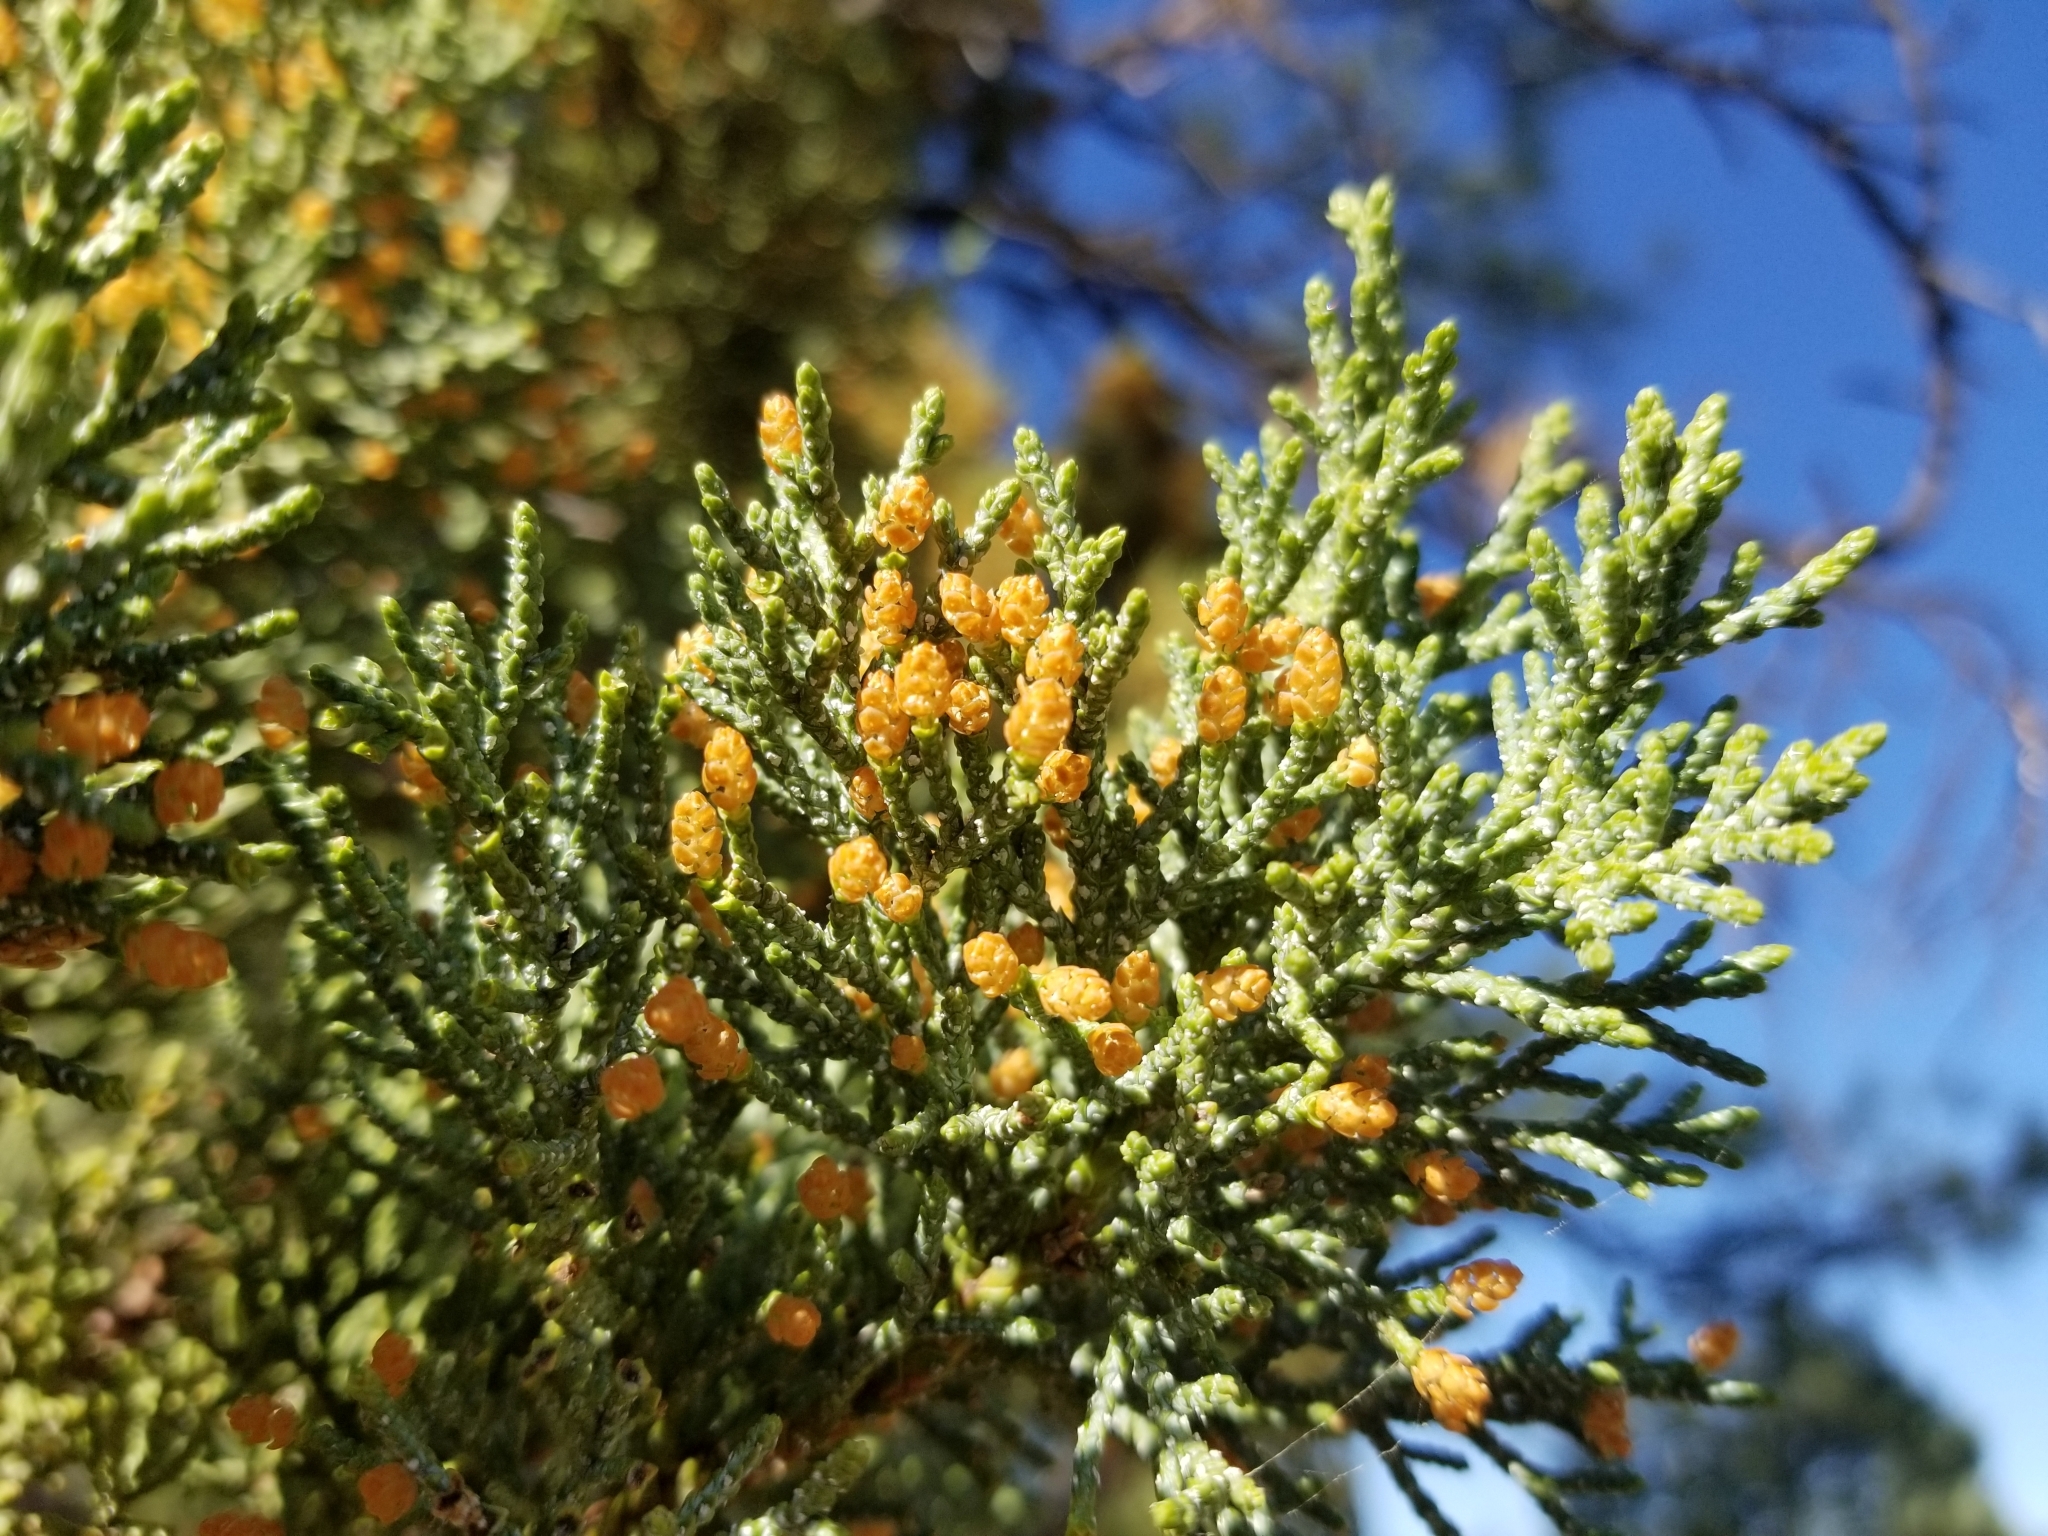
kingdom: Plantae
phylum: Tracheophyta
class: Pinopsida
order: Pinales
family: Cupressaceae
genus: Juniperus
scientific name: Juniperus deppeana
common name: Alligator juniper
